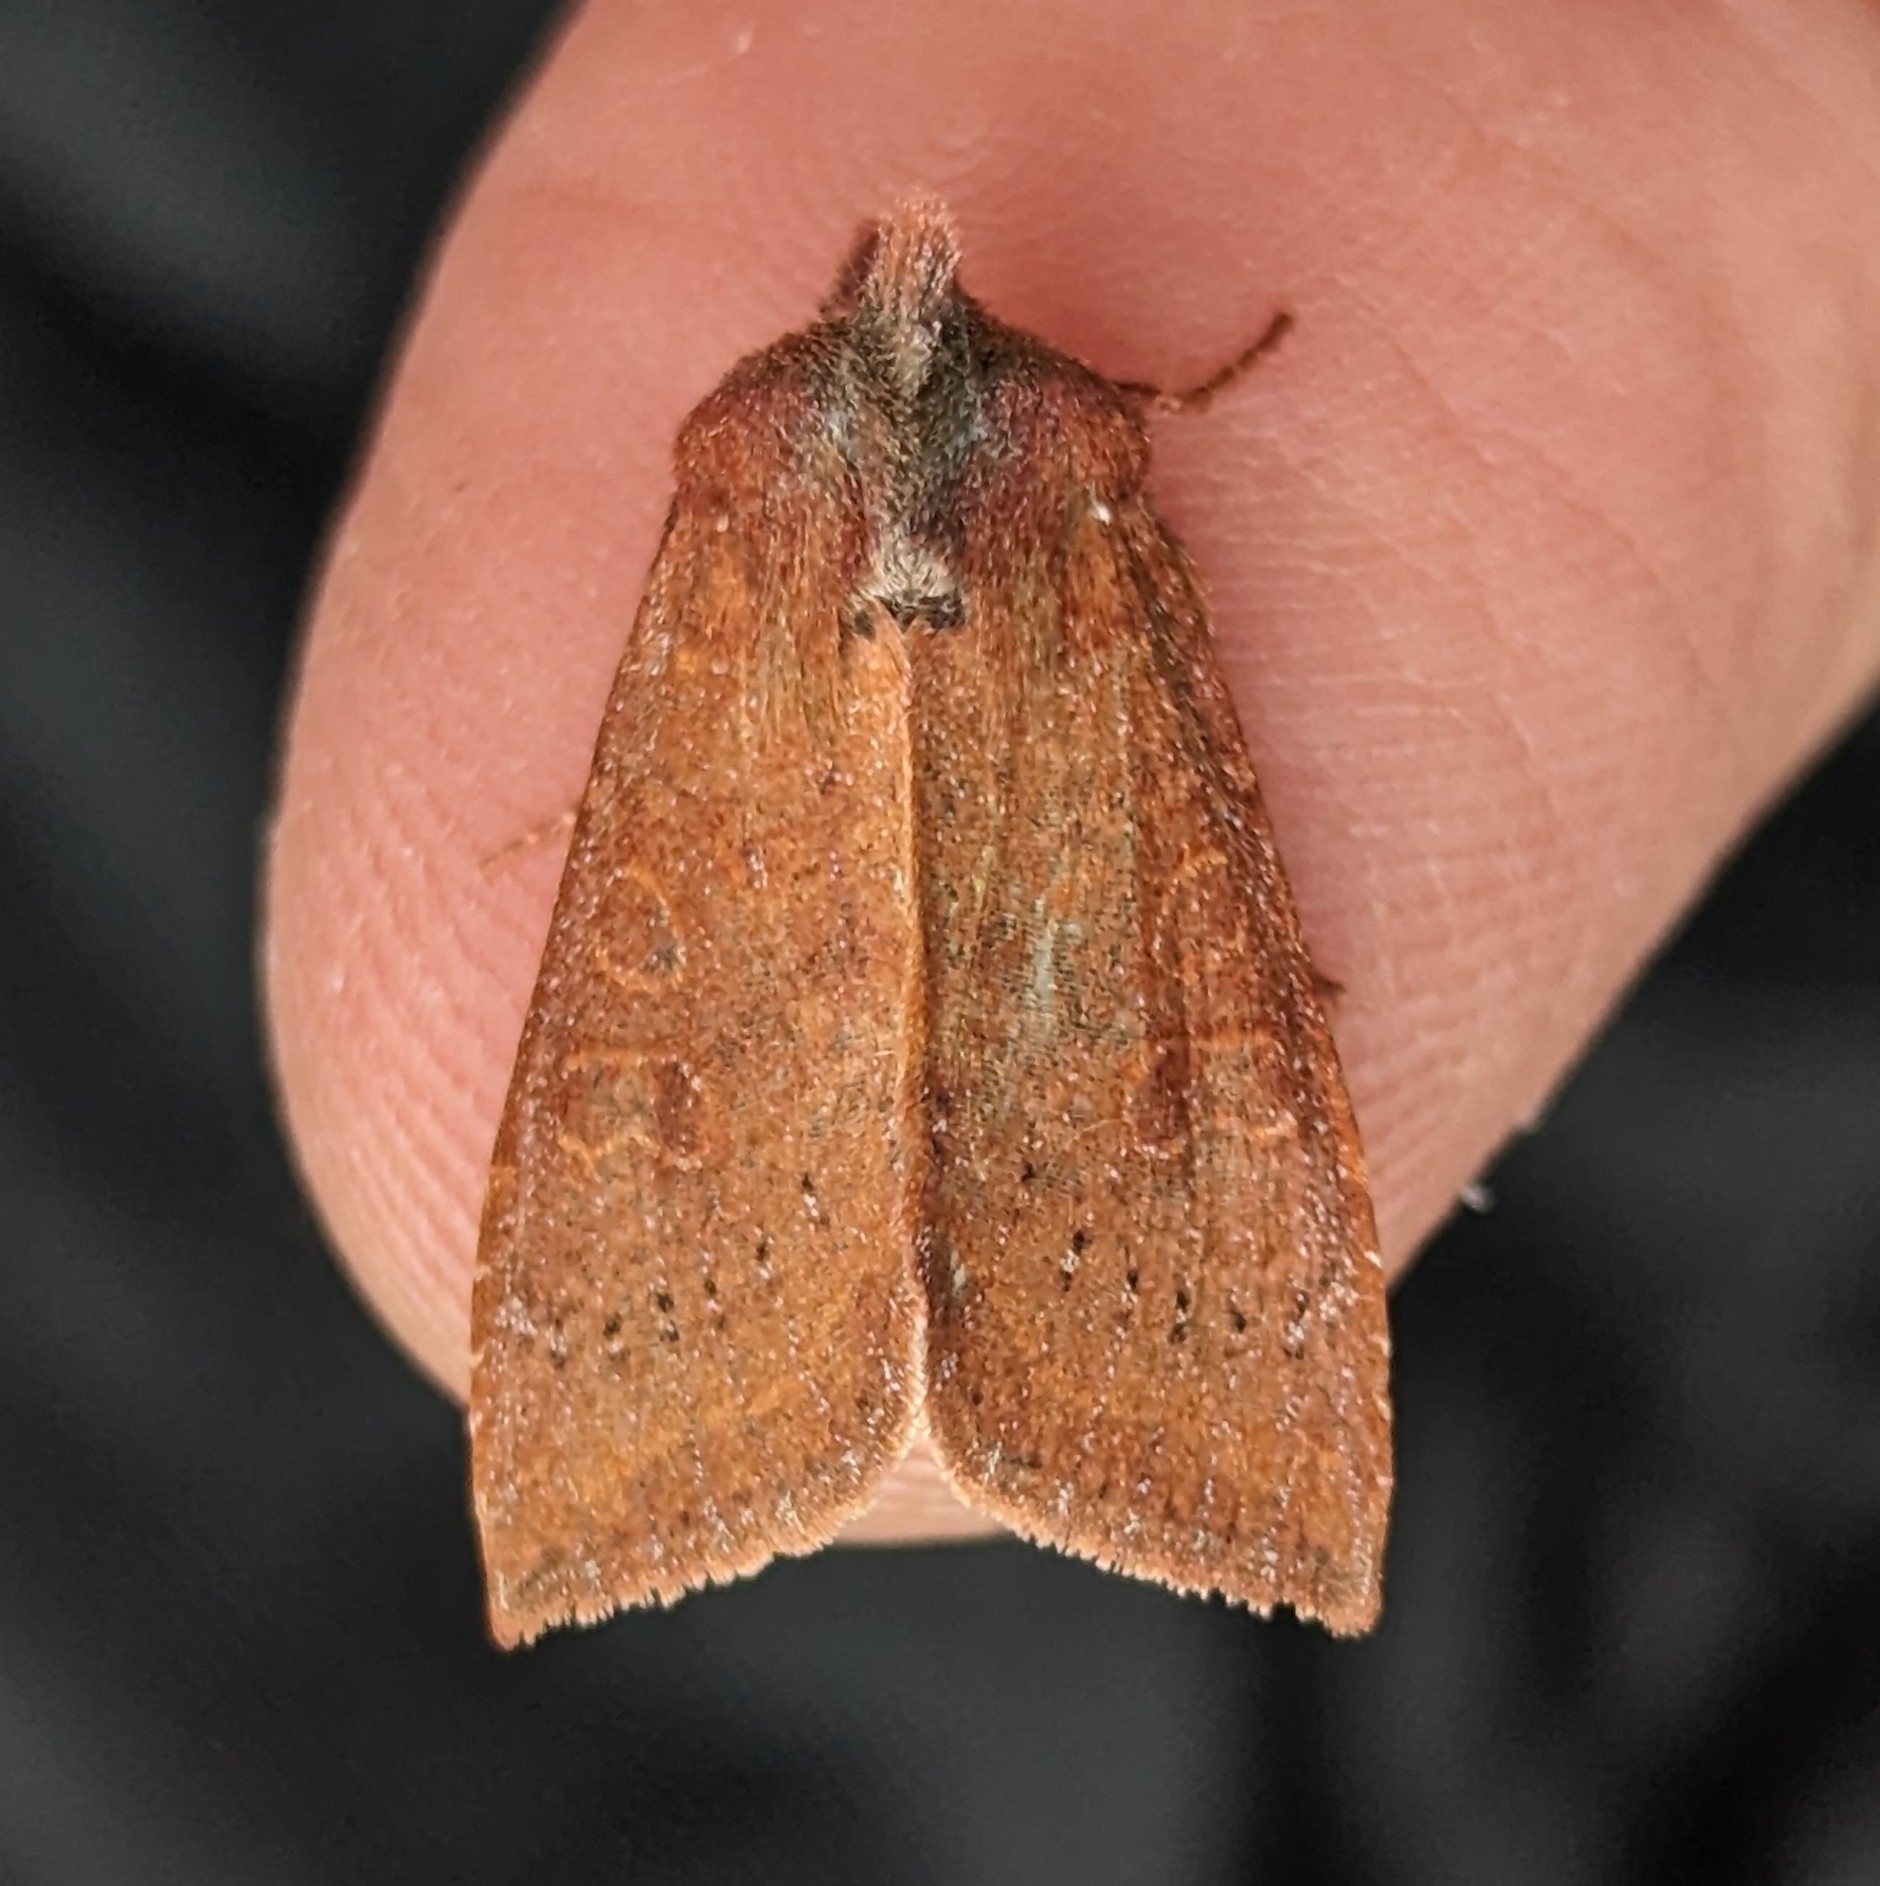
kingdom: Animalia
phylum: Arthropoda
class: Insecta
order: Lepidoptera
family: Noctuidae
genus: Orthosia
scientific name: Orthosia transparens
